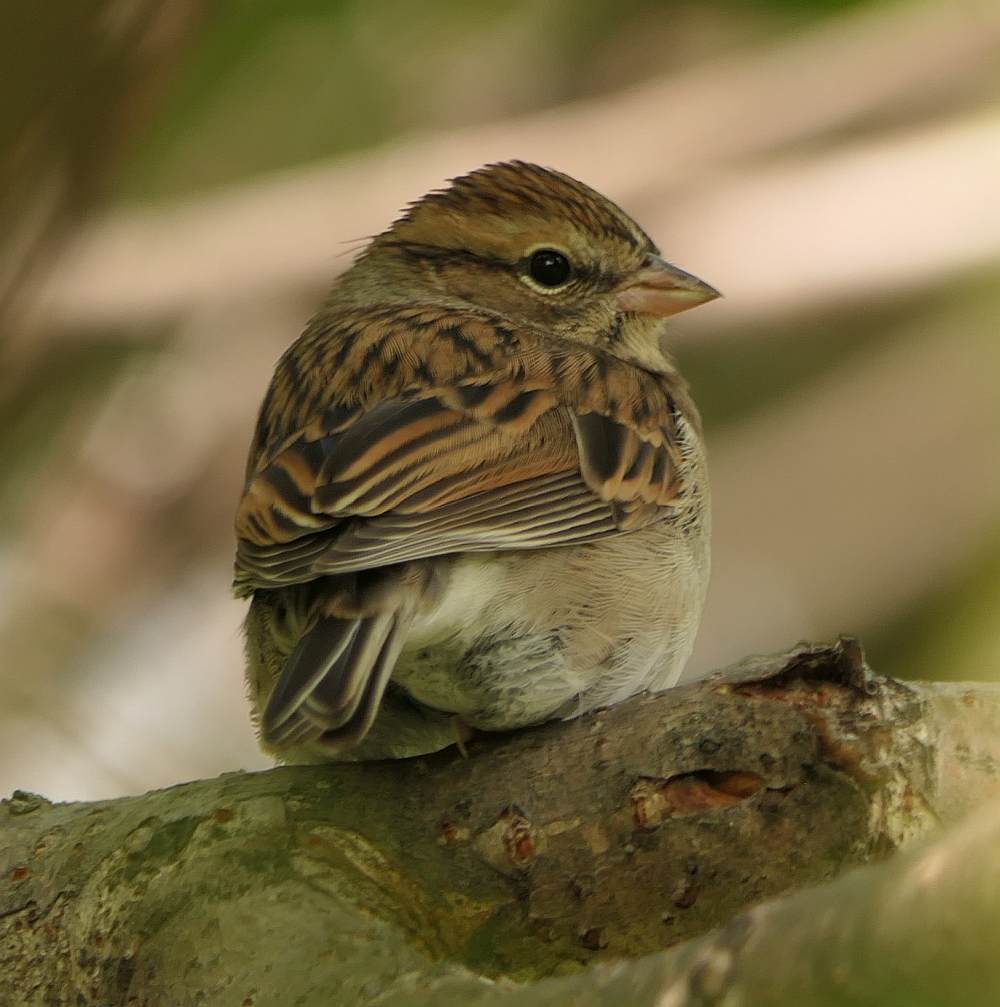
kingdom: Animalia
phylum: Chordata
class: Aves
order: Passeriformes
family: Passerellidae
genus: Spizella
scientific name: Spizella passerina
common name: Chipping sparrow
